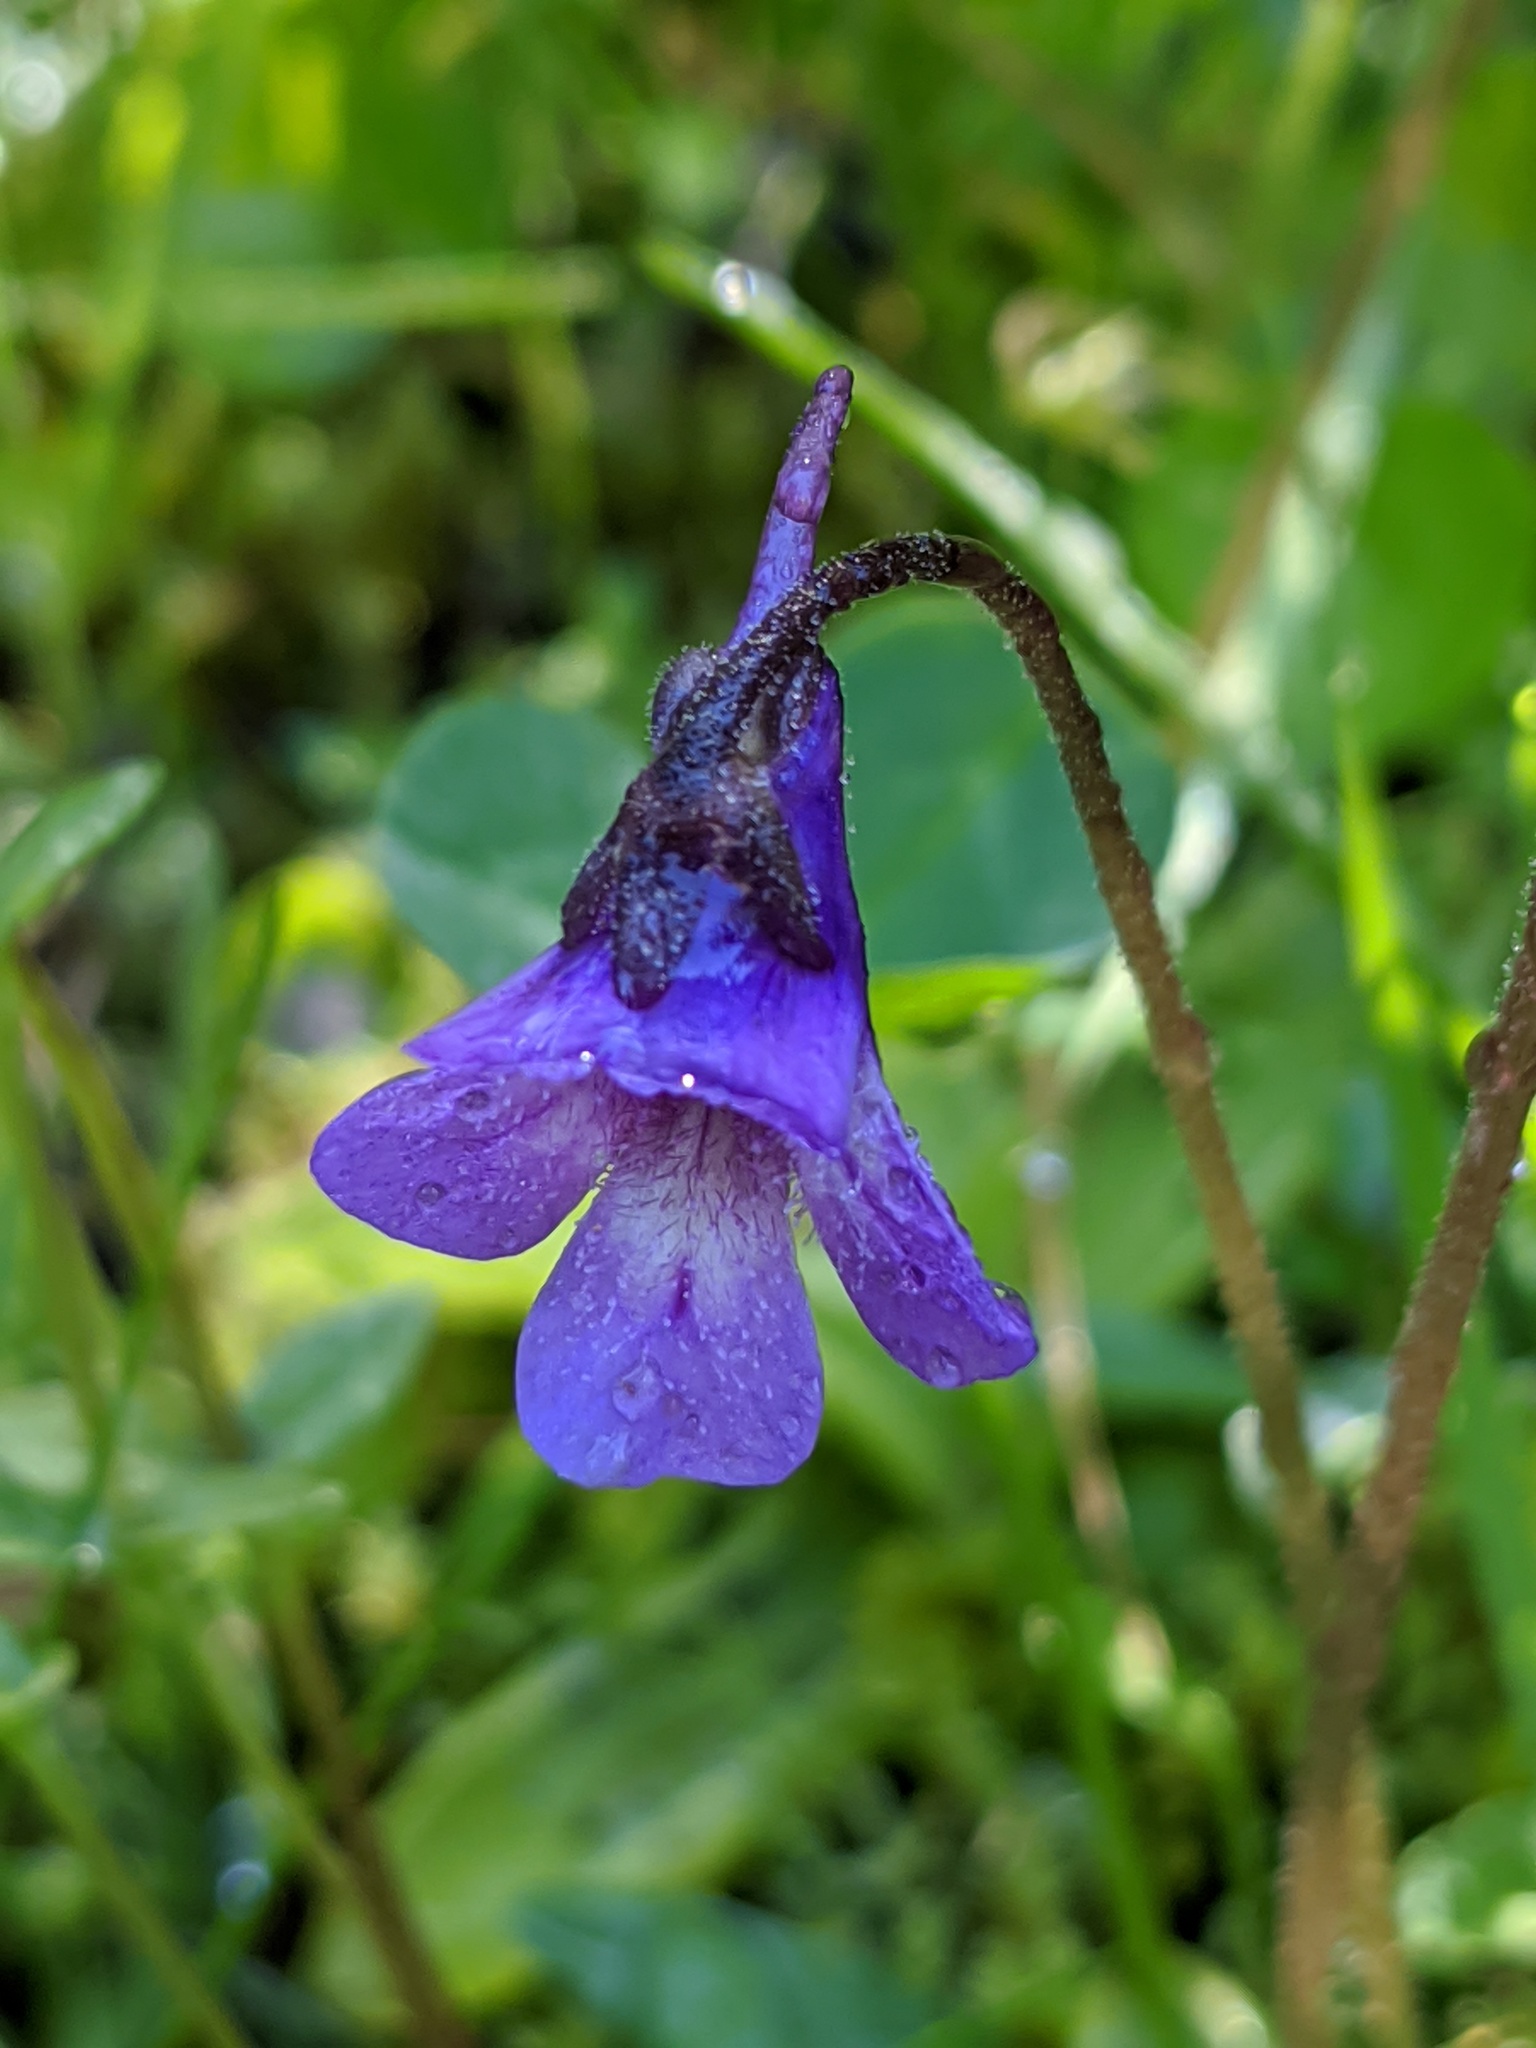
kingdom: Plantae
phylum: Tracheophyta
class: Magnoliopsida
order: Lamiales
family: Lentibulariaceae
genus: Pinguicula
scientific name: Pinguicula vulgaris
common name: Common butterwort
